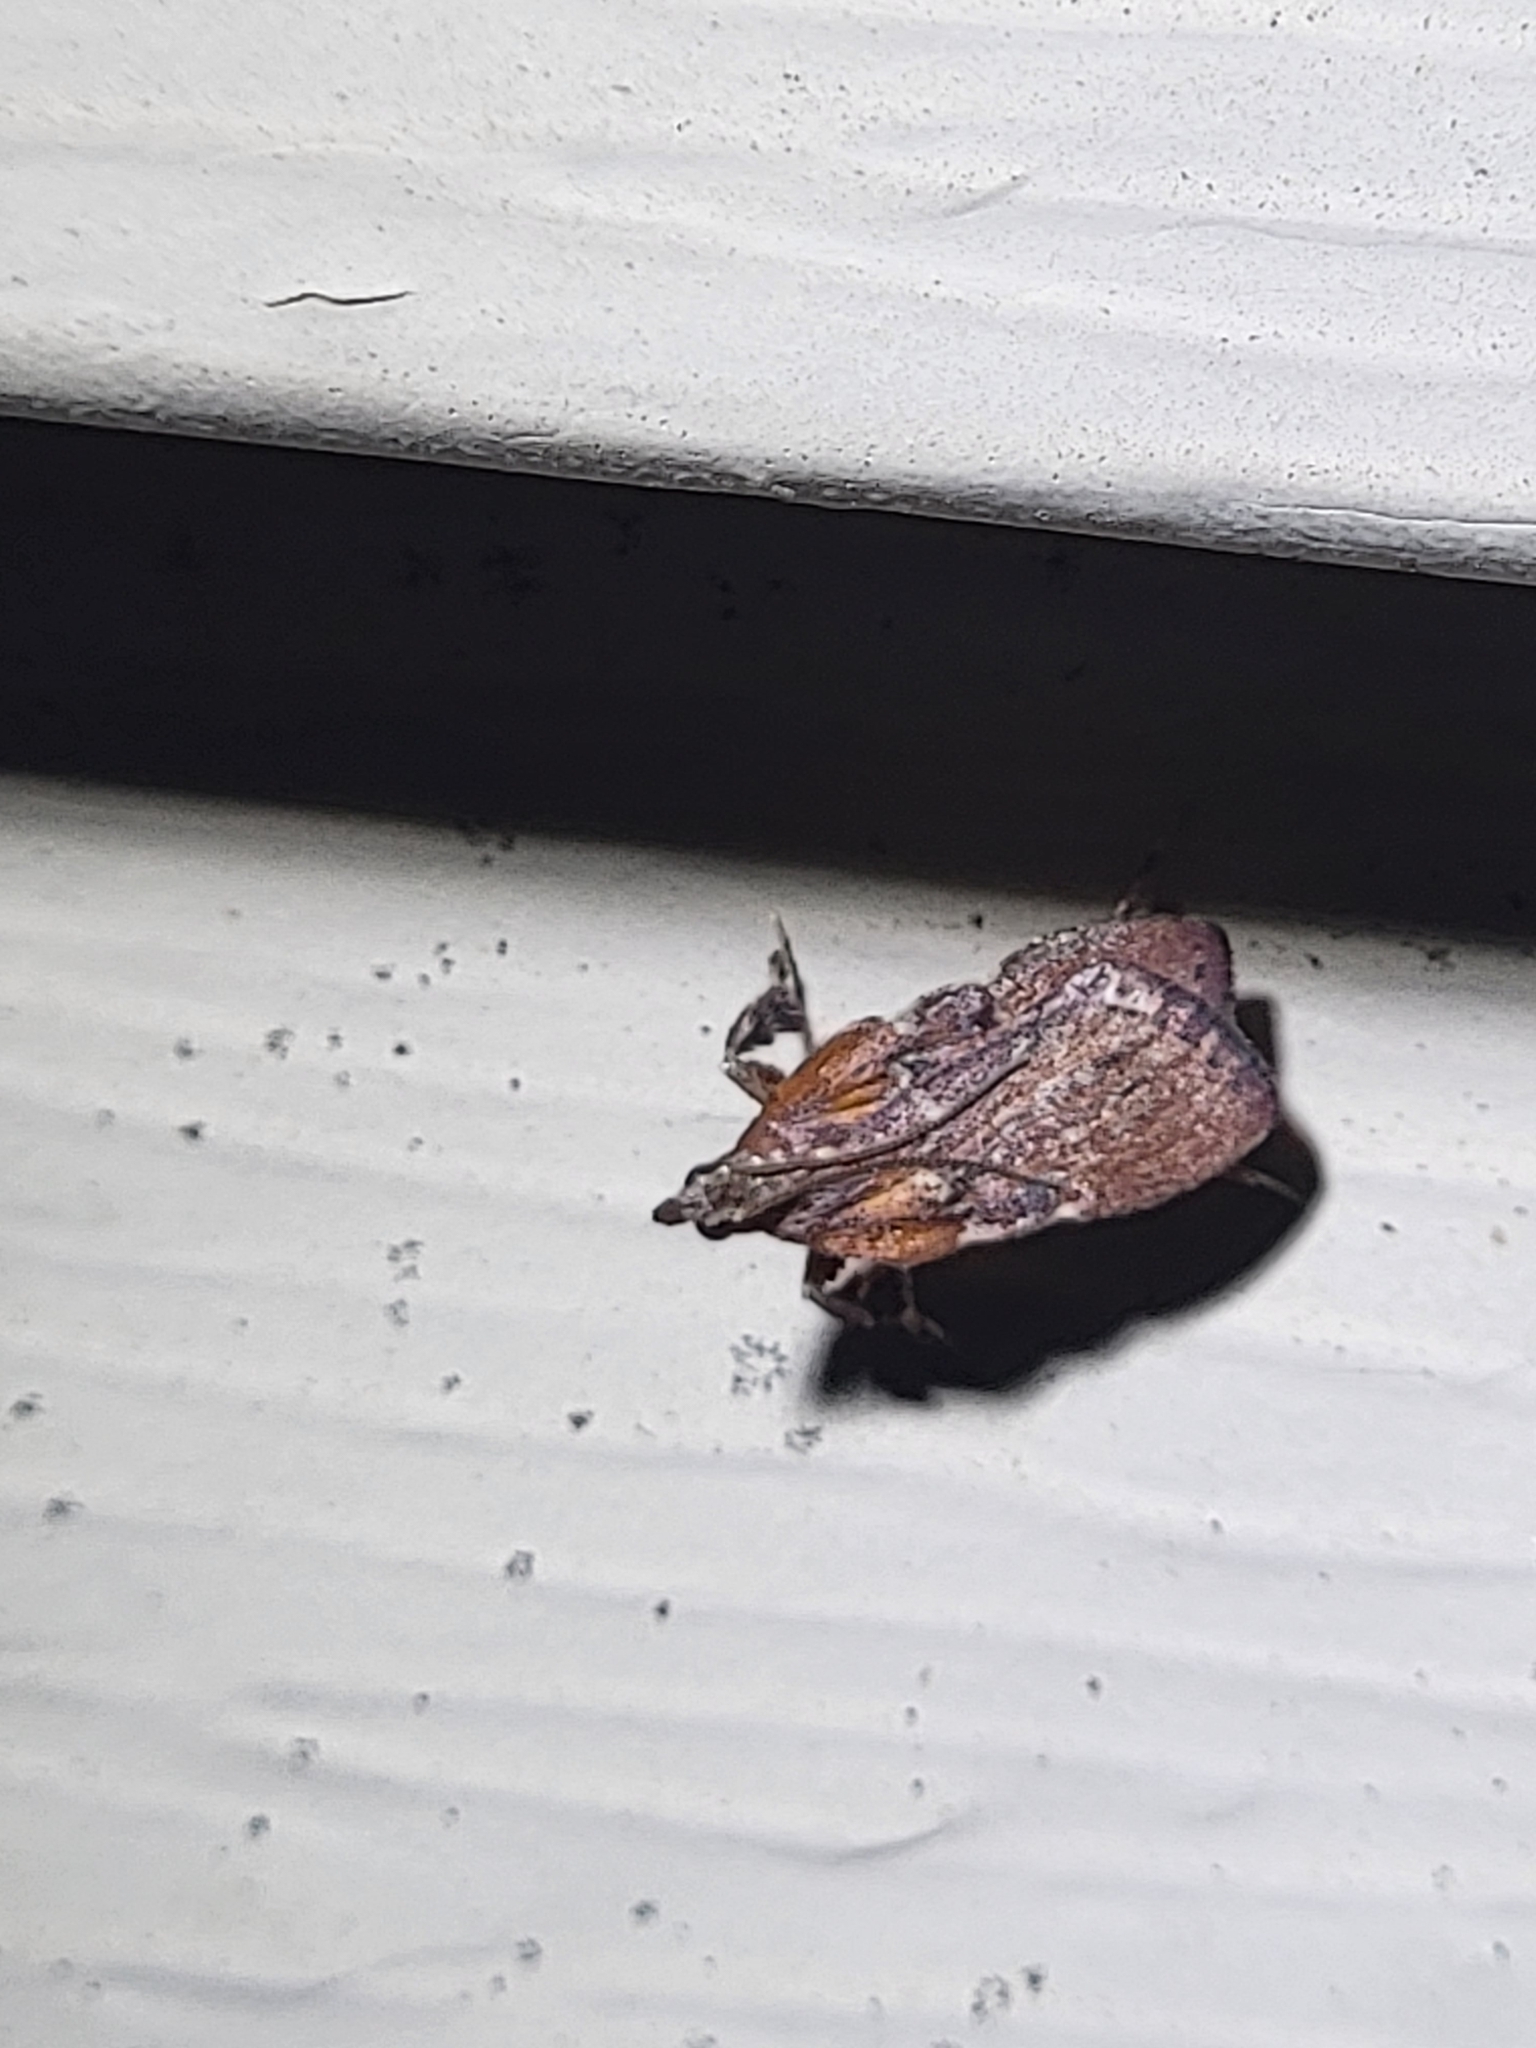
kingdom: Animalia
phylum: Arthropoda
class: Insecta
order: Lepidoptera
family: Pyralidae
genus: Galasa
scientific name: Galasa nigrinodis
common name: Boxwood leaftier moth
